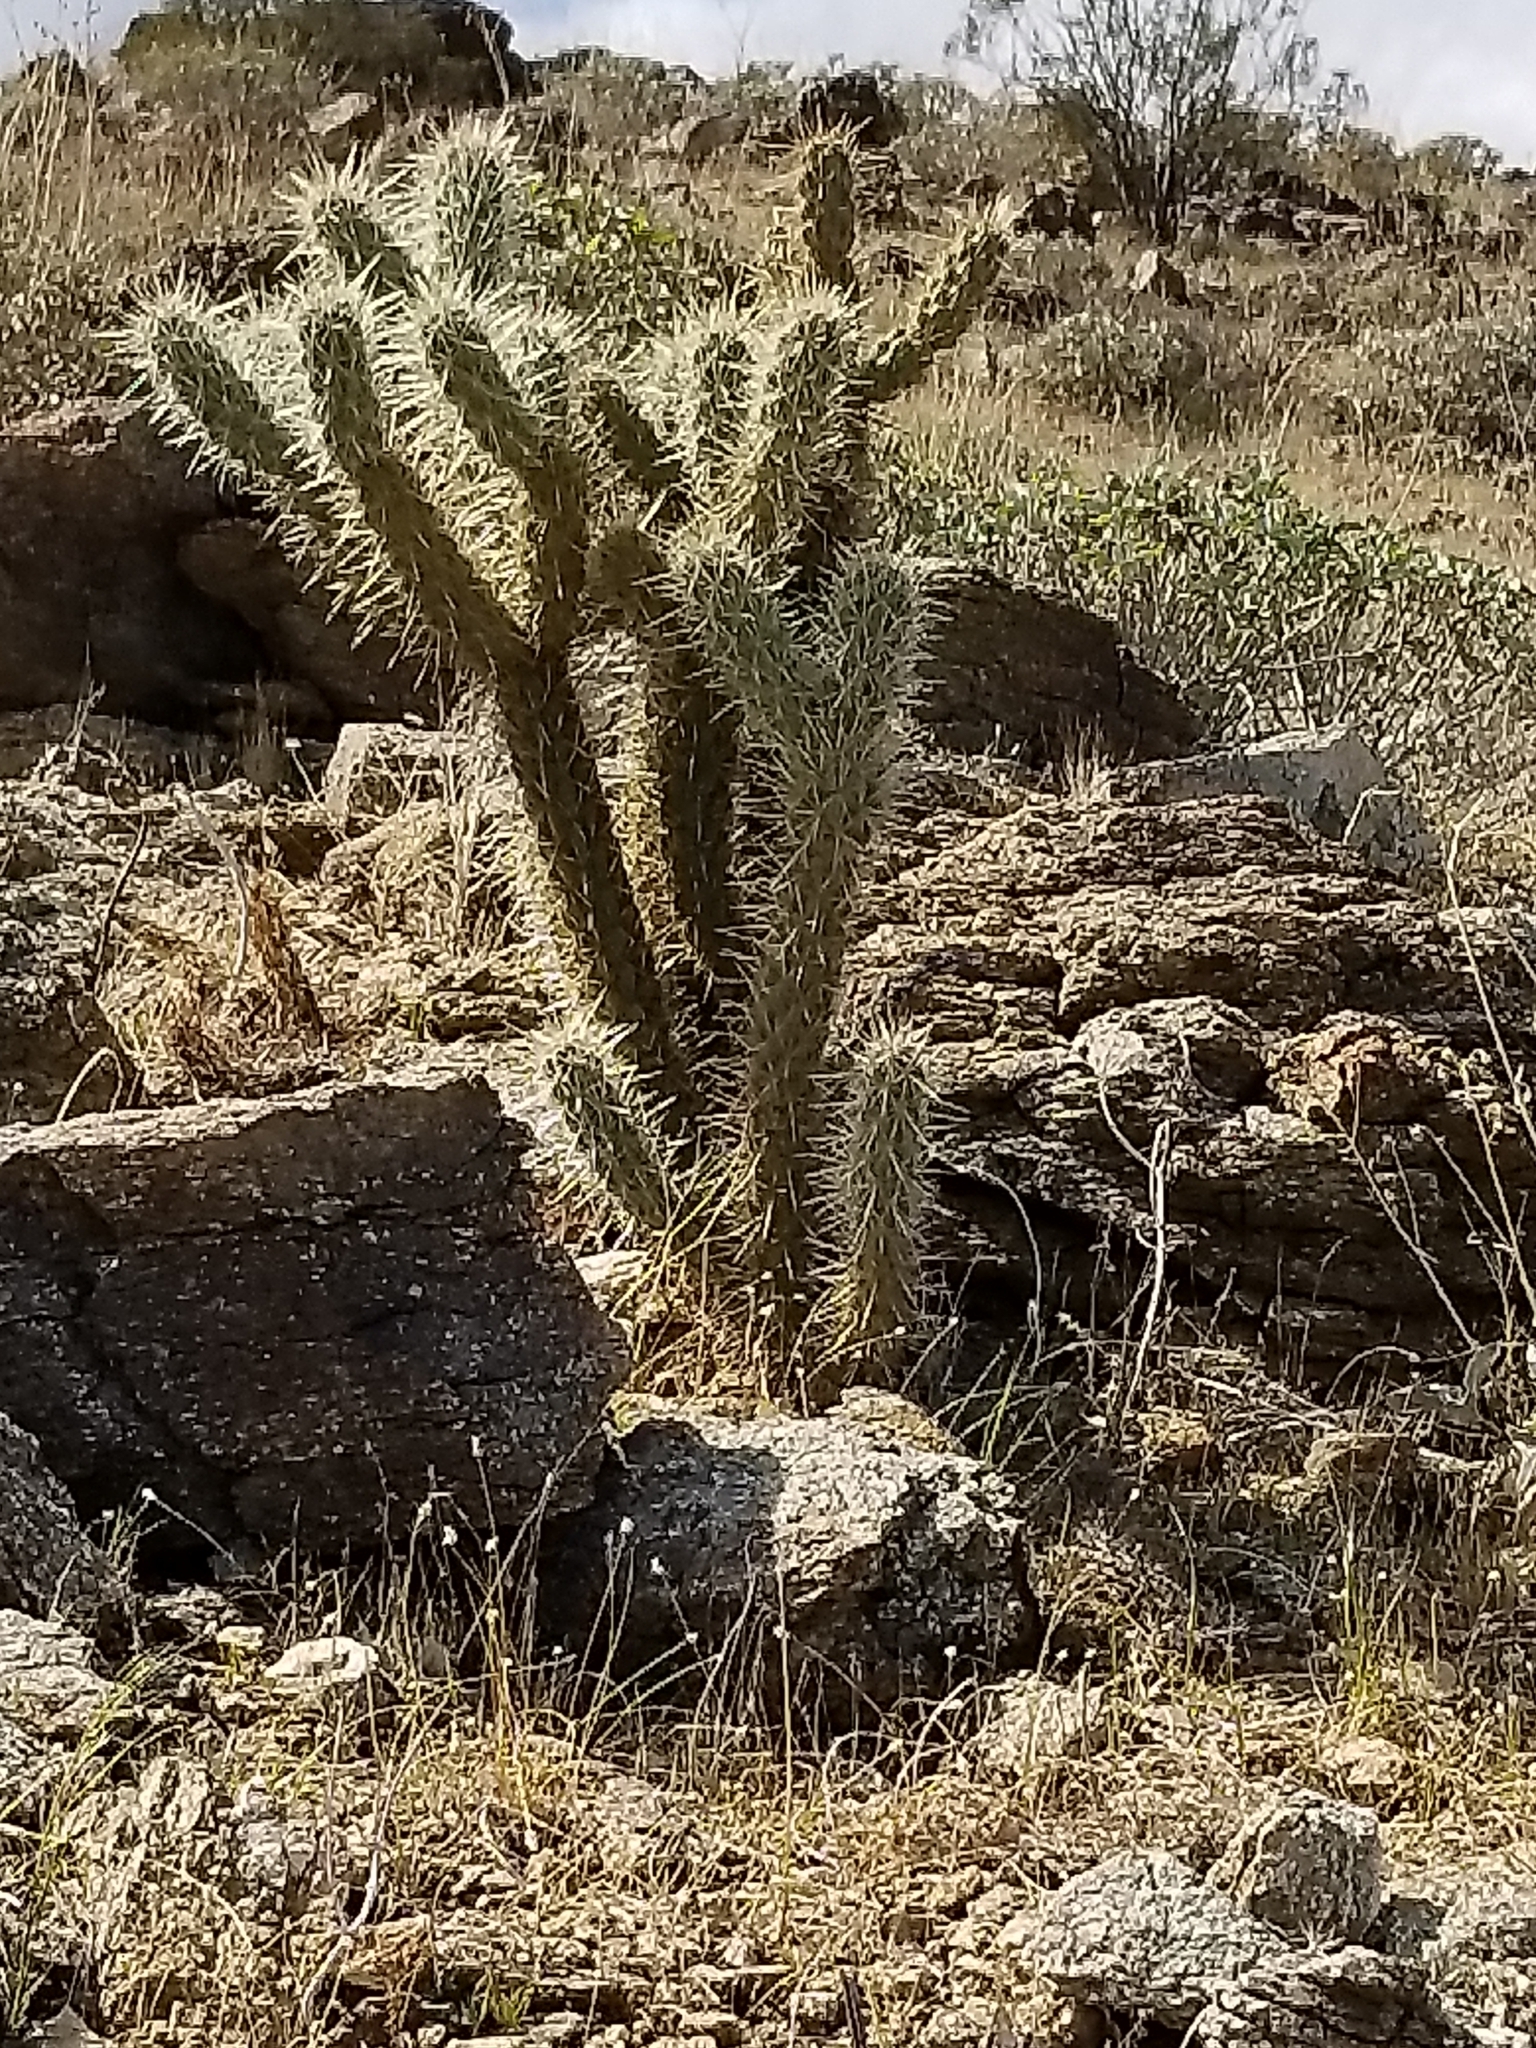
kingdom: Plantae
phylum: Tracheophyta
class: Magnoliopsida
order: Caryophyllales
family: Cactaceae
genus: Cylindropuntia
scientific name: Cylindropuntia ganderi
